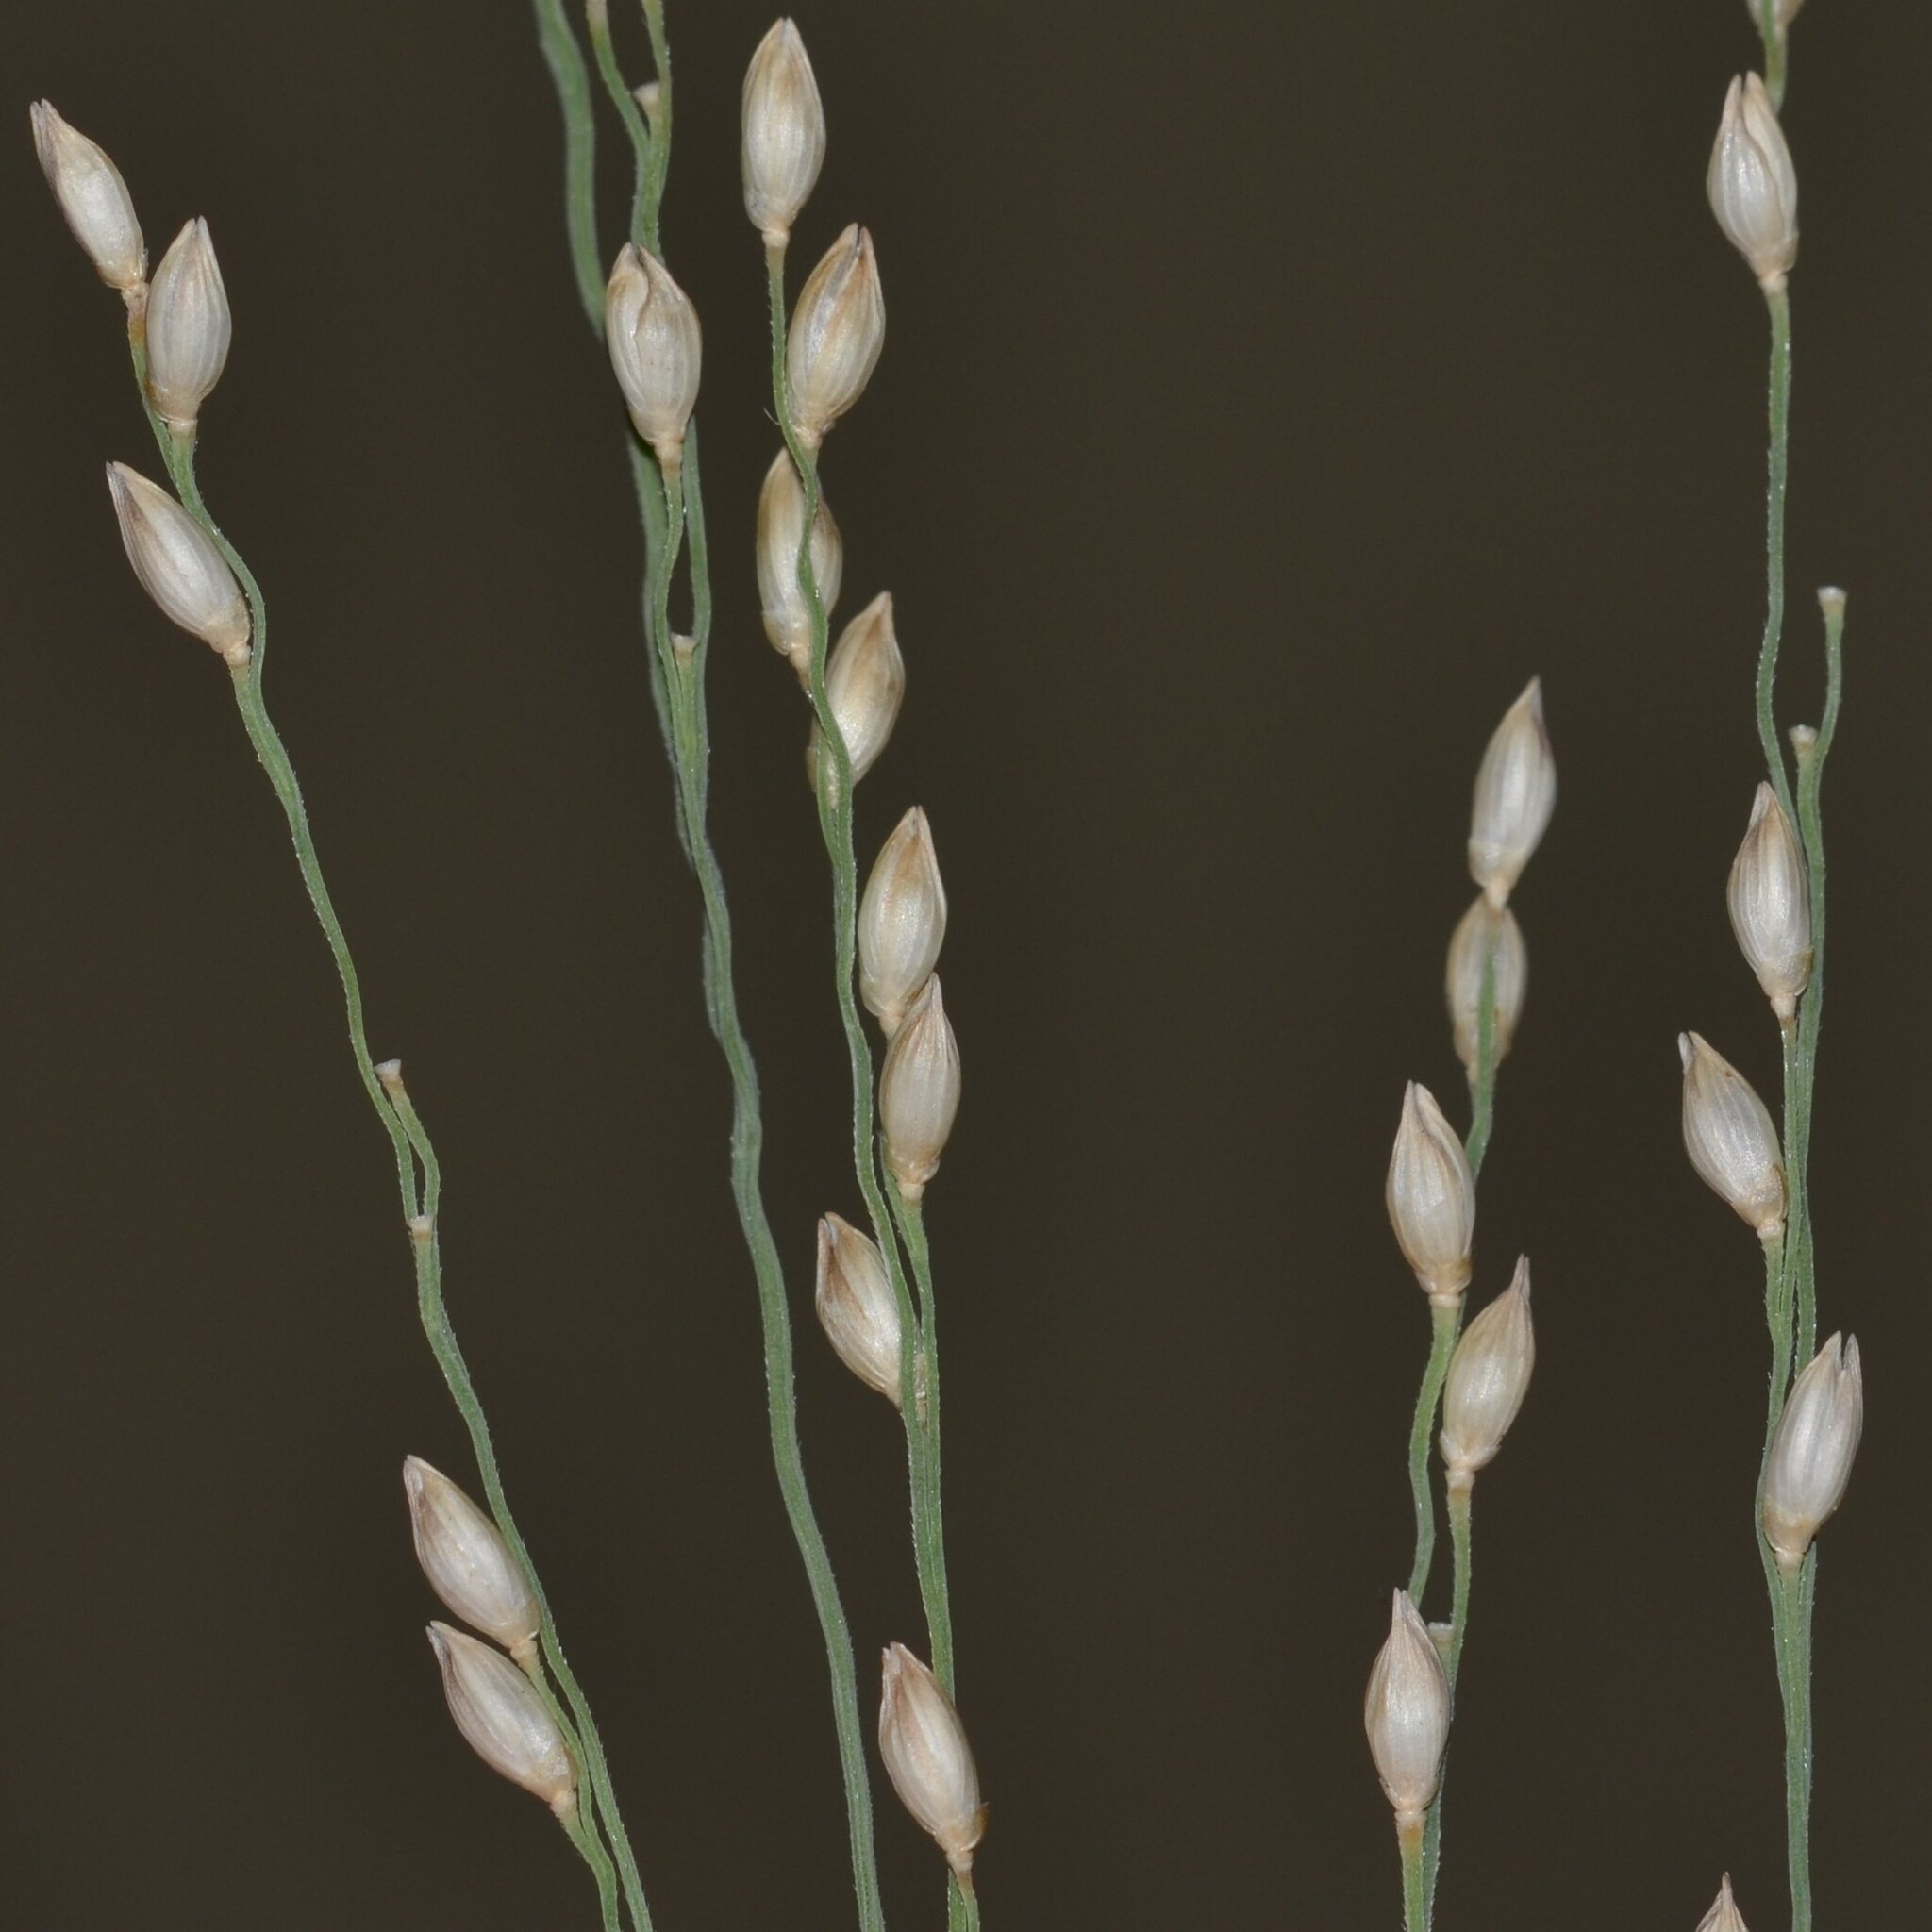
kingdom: Plantae
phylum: Tracheophyta
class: Liliopsida
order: Poales
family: Poaceae
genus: Panicum
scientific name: Panicum repens
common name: Torpedo grass
